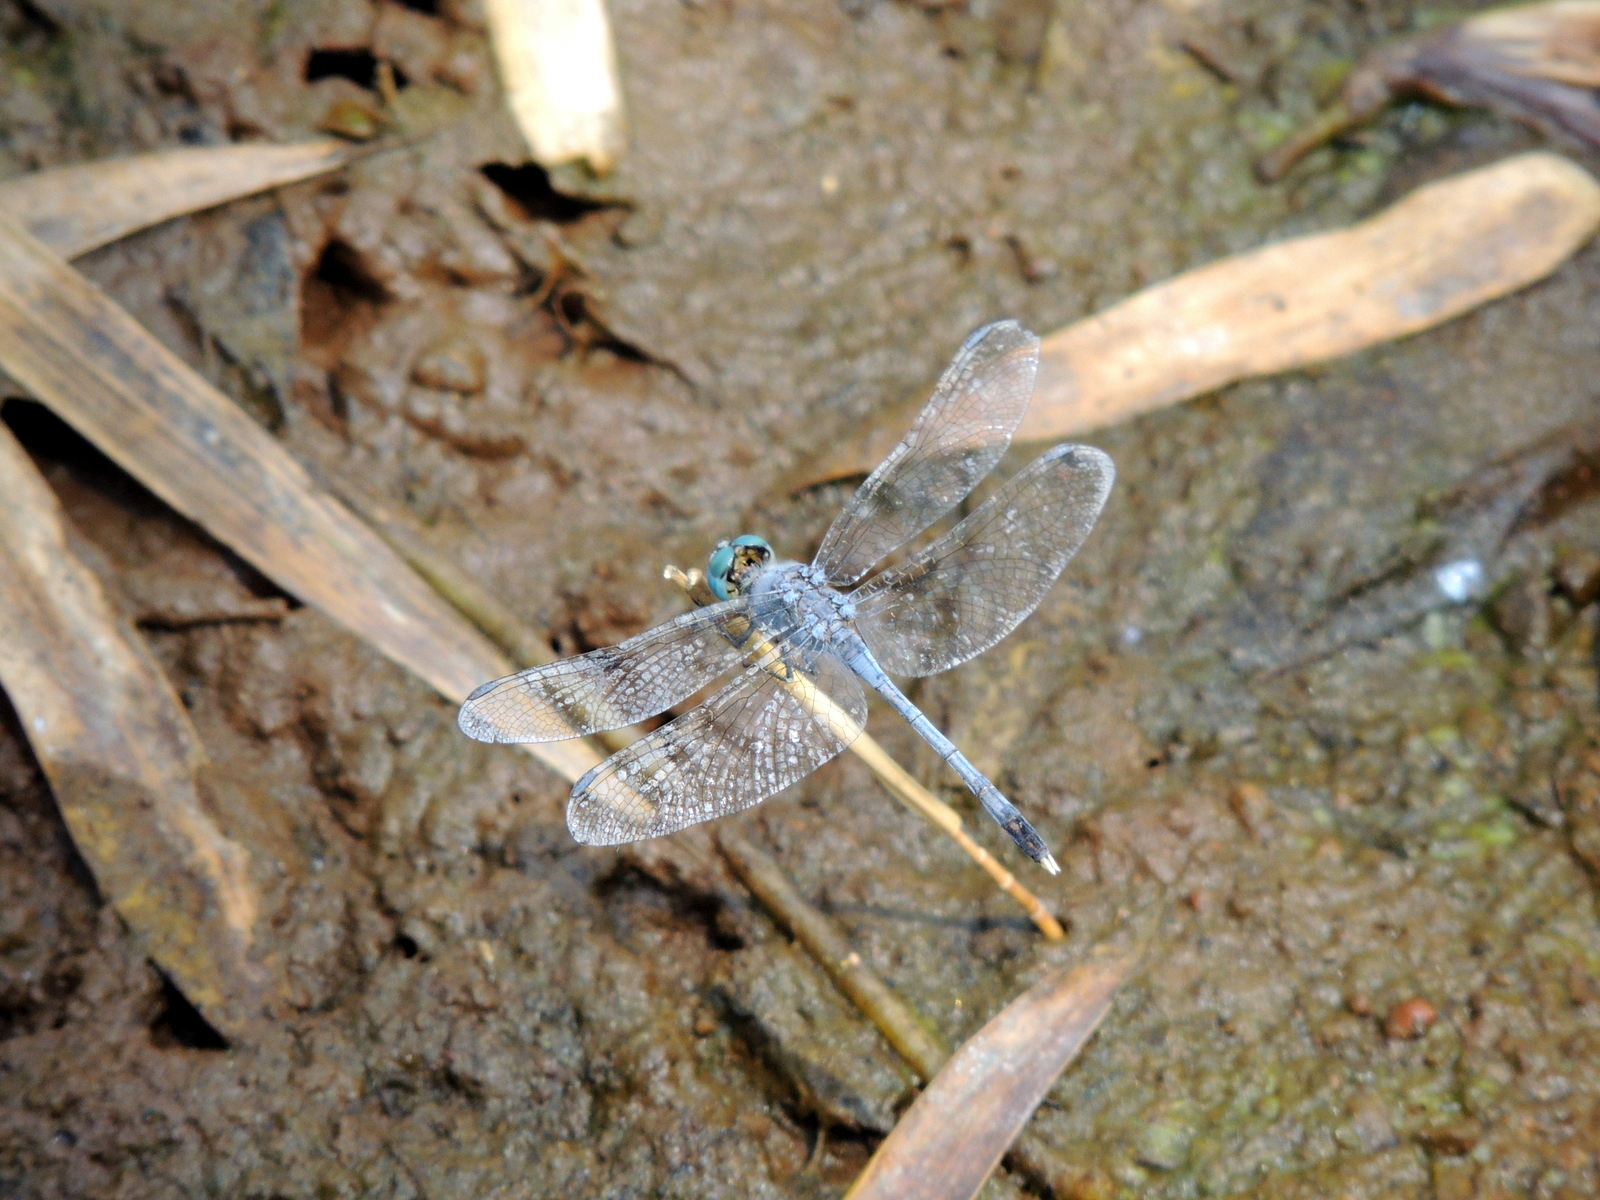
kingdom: Animalia
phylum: Arthropoda
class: Insecta
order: Odonata
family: Libellulidae
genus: Diplacodes
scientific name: Diplacodes trivialis
